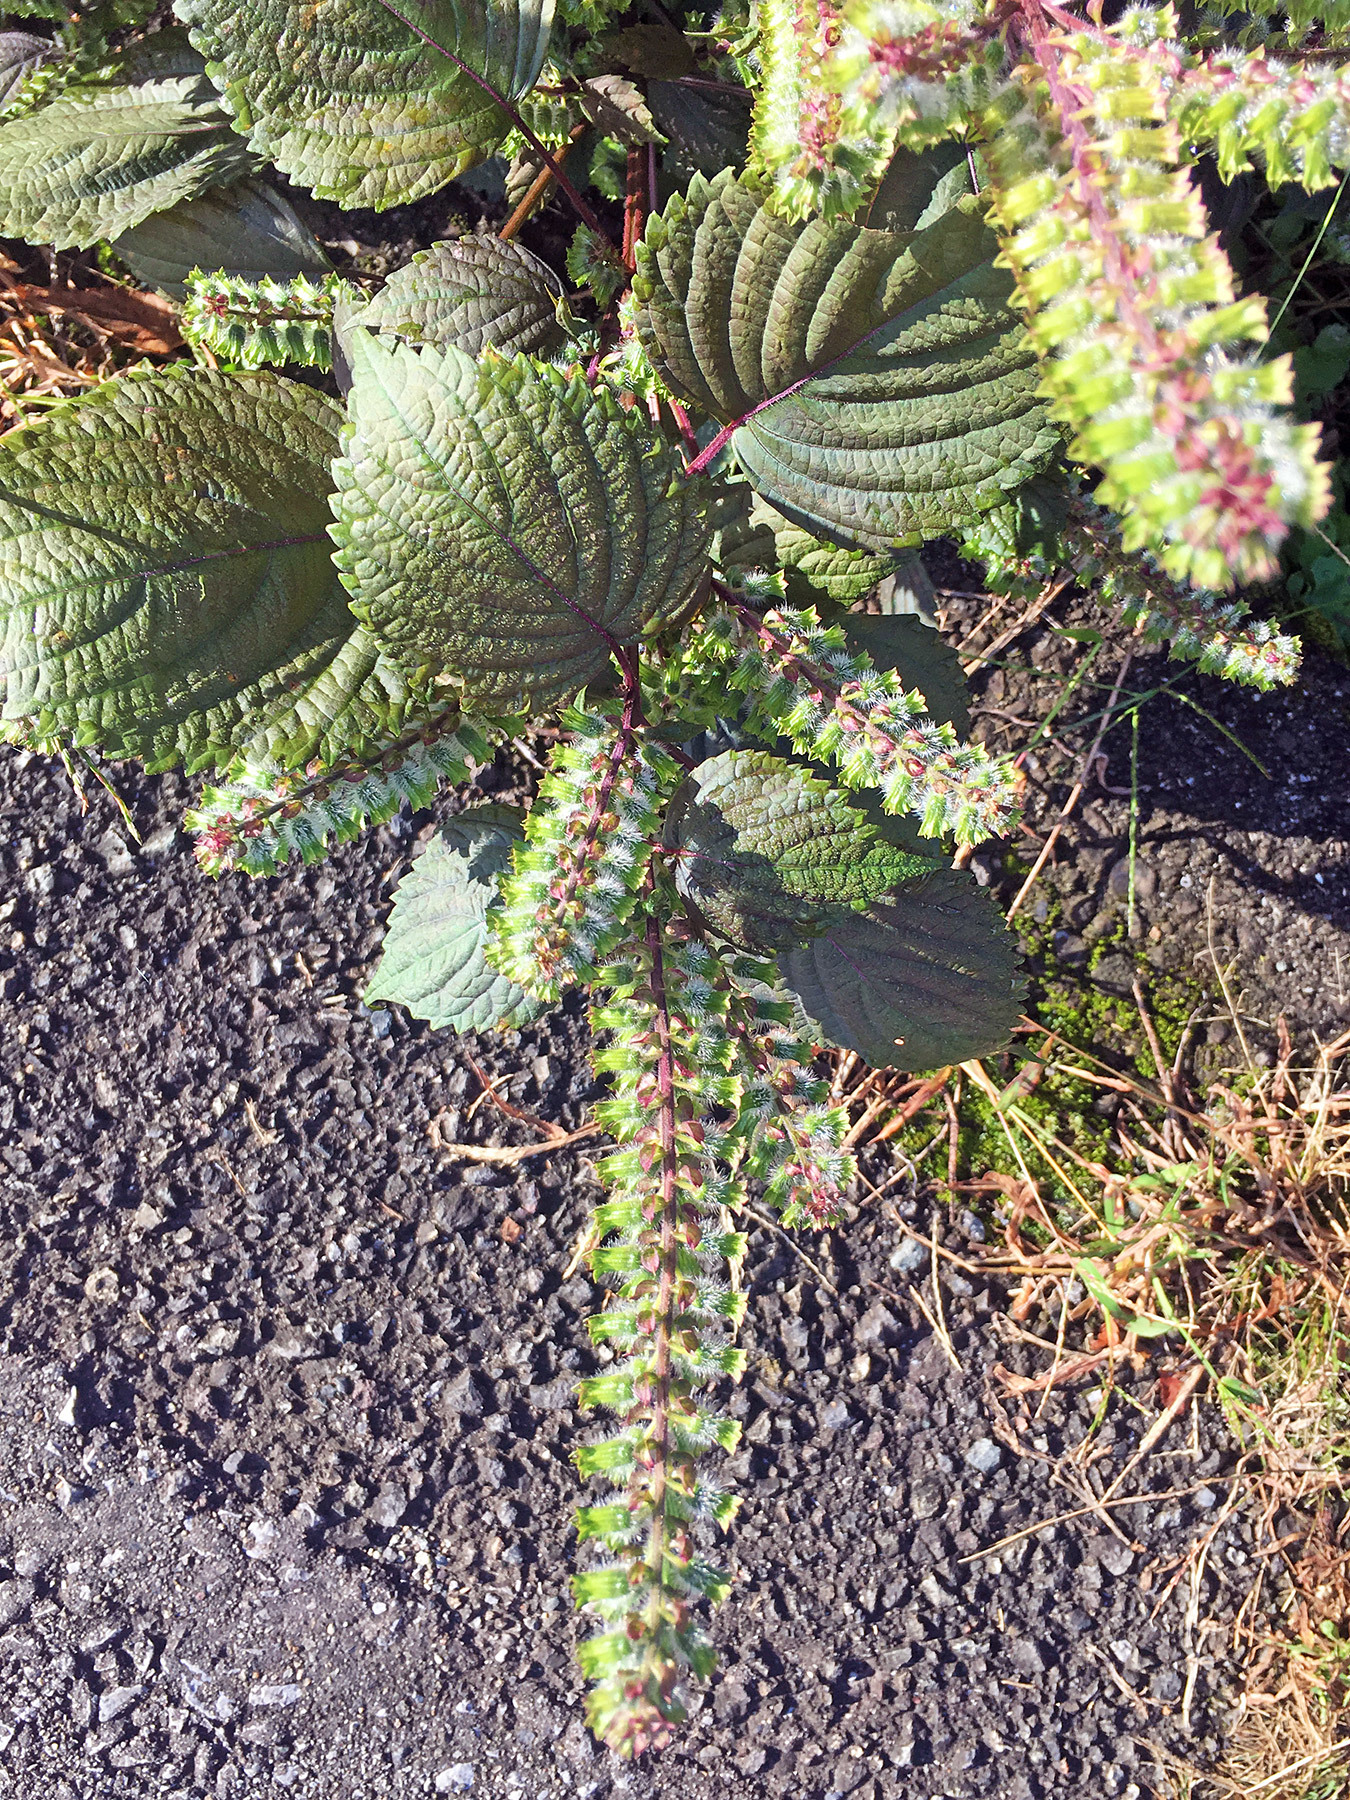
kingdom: Plantae
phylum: Tracheophyta
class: Magnoliopsida
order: Lamiales
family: Lamiaceae
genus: Perilla
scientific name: Perilla frutescens
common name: Perilla
